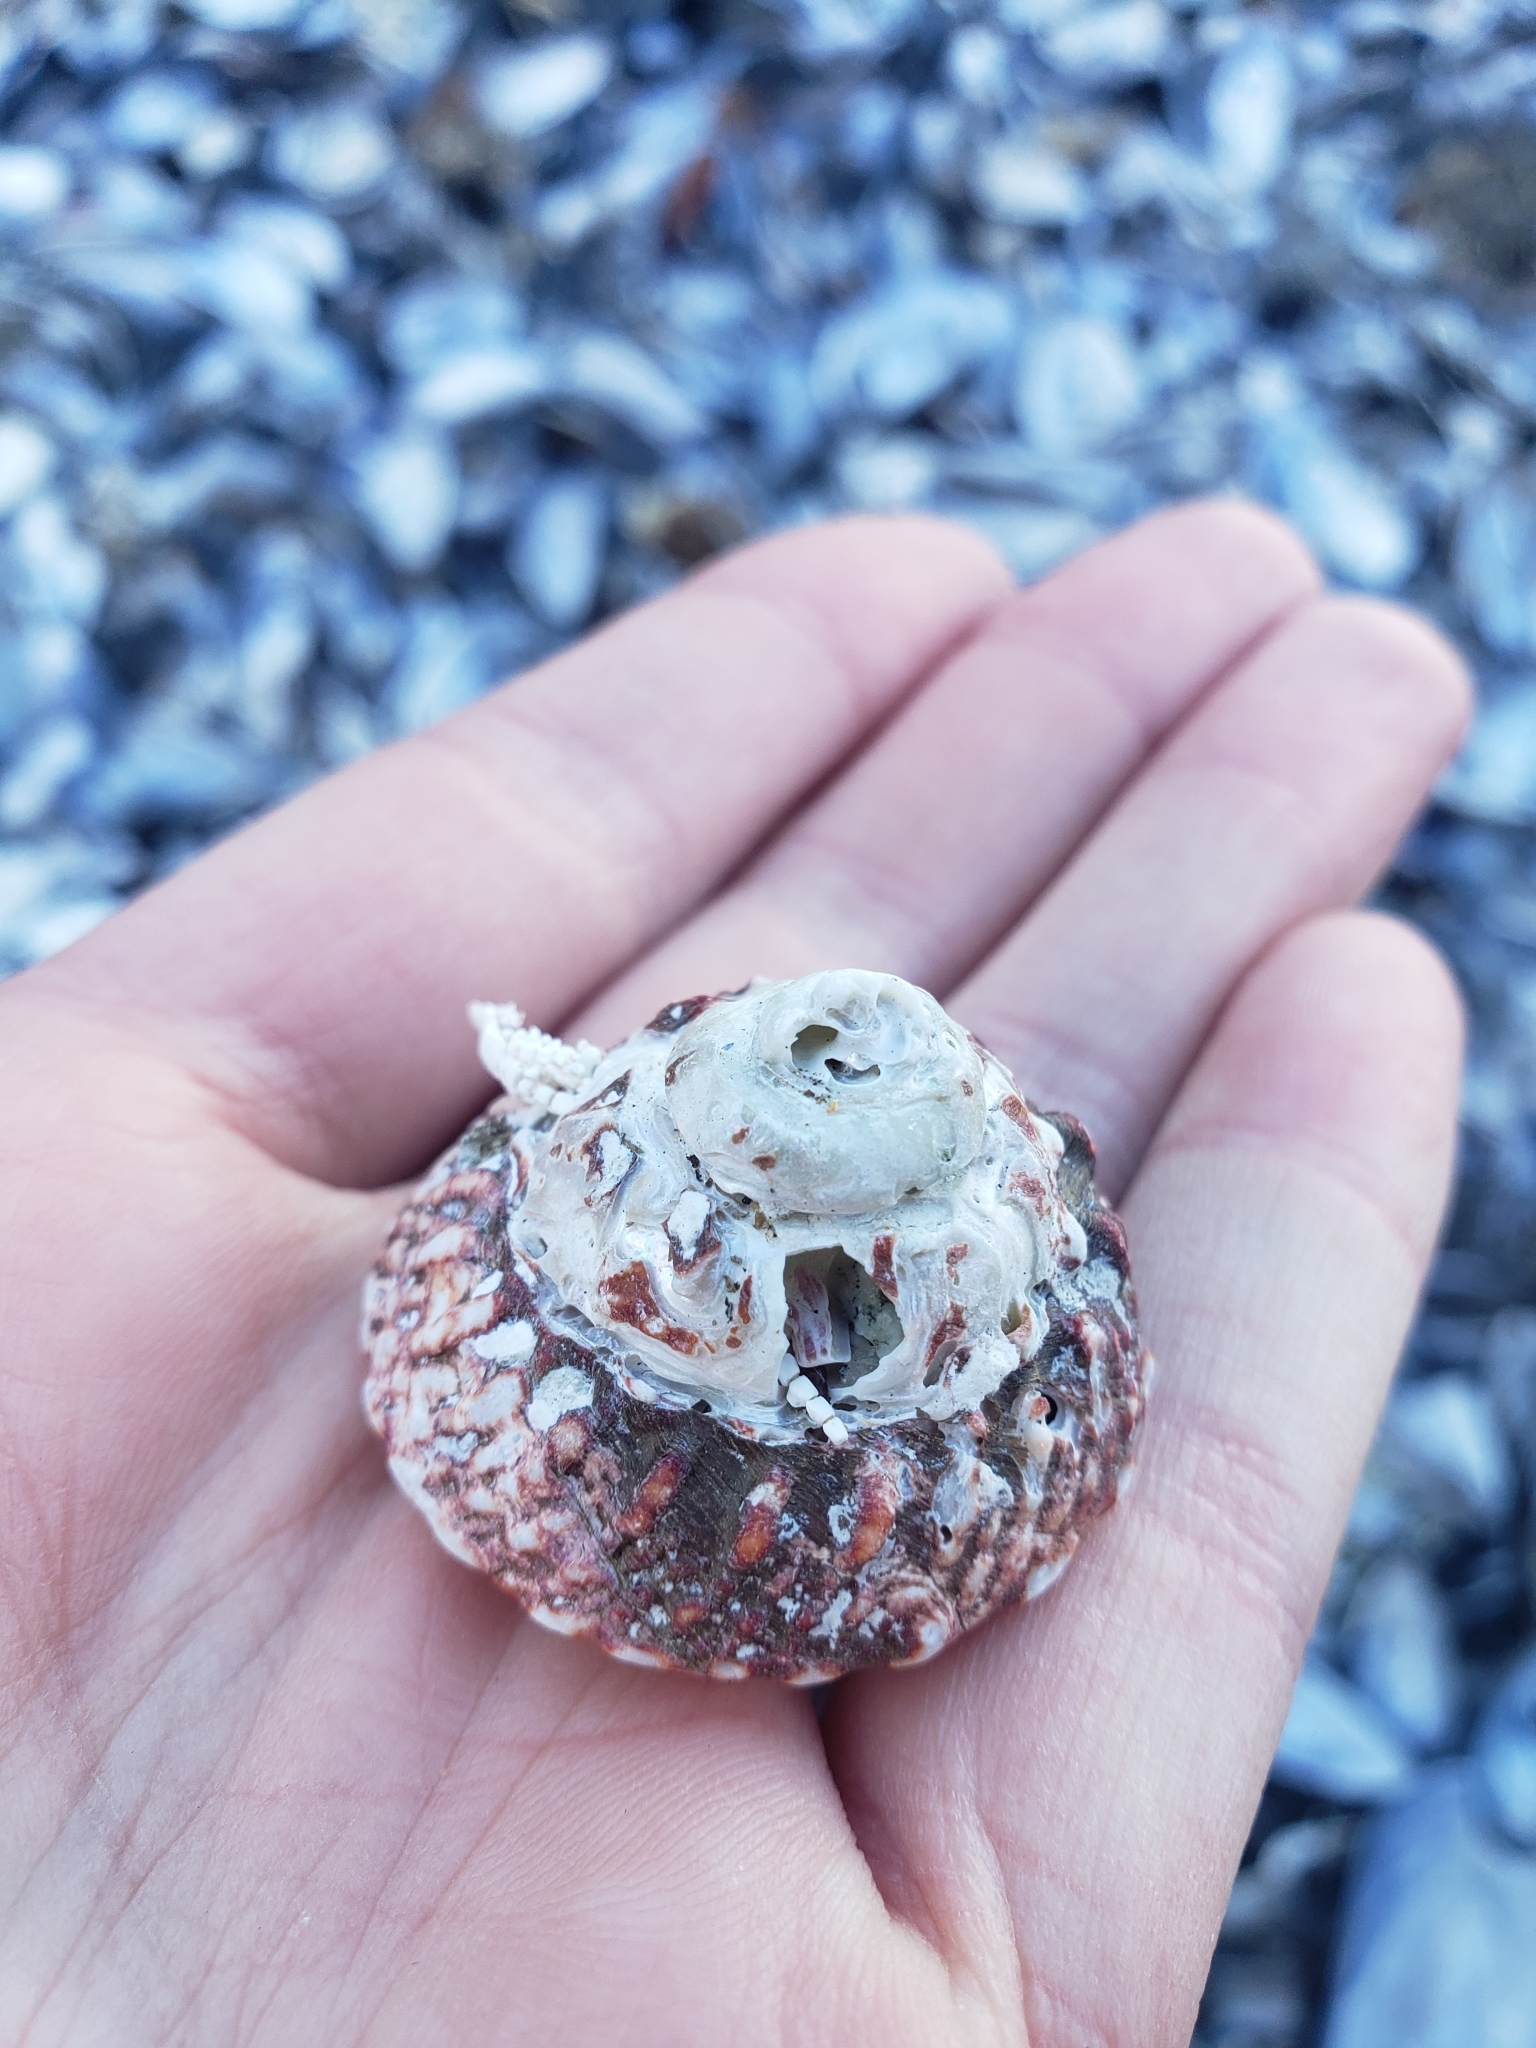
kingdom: Animalia
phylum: Mollusca
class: Gastropoda
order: Trochida
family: Turbinidae
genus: Pomaulax
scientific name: Pomaulax gibberosus
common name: Red turban
